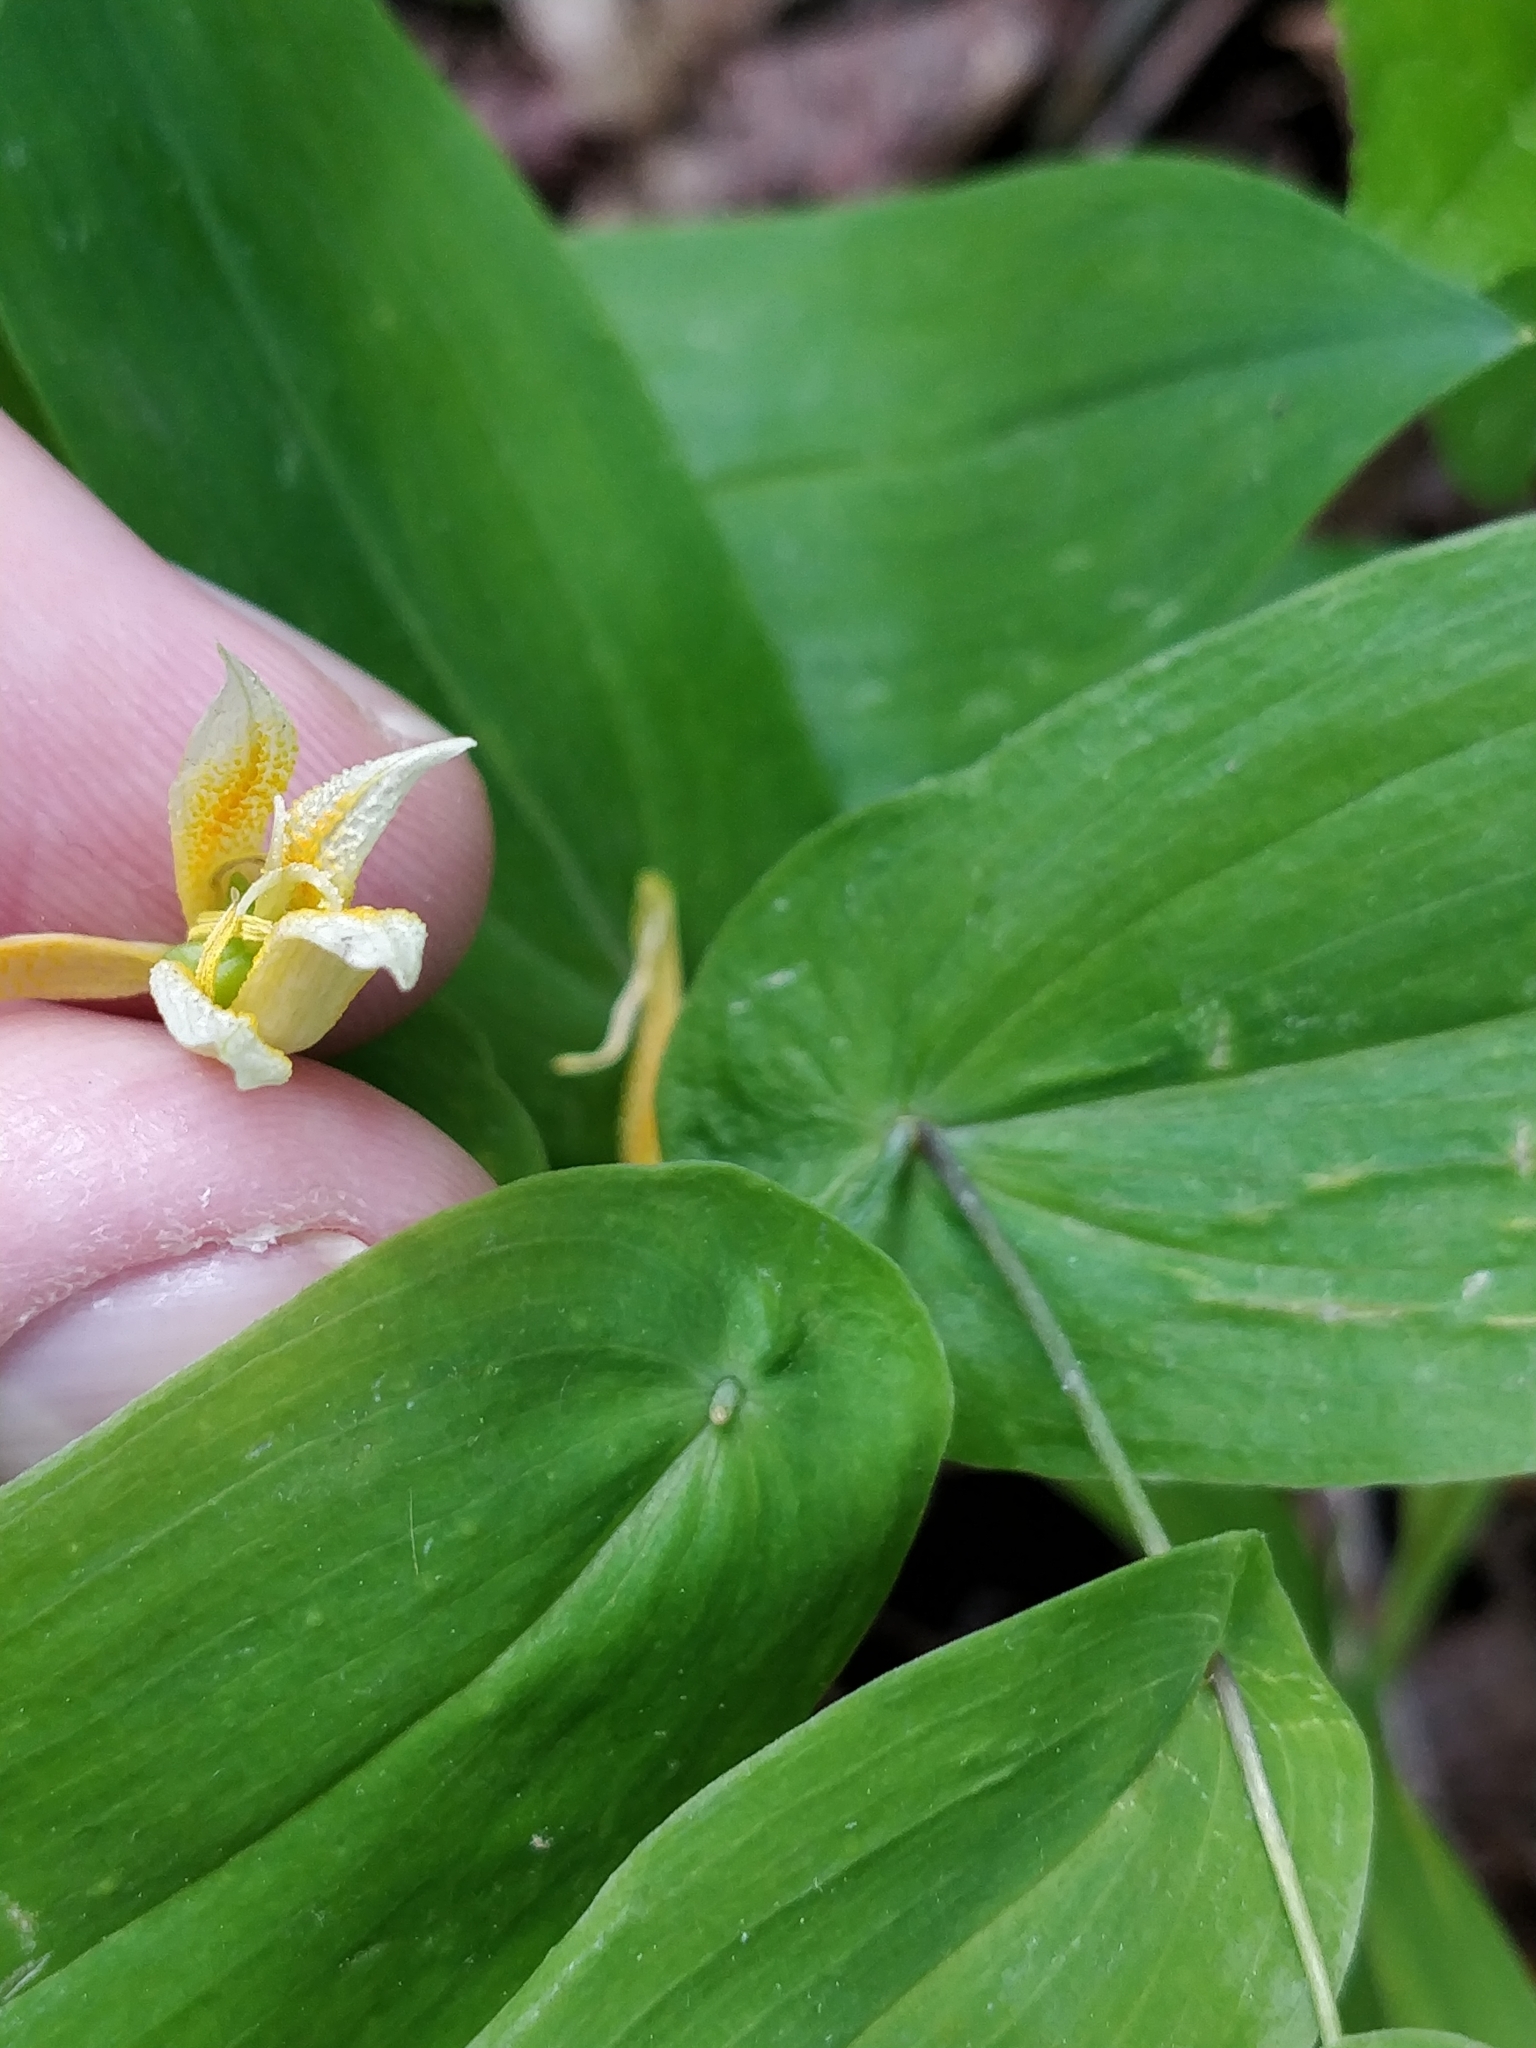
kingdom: Plantae
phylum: Tracheophyta
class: Liliopsida
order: Liliales
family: Colchicaceae
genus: Uvularia
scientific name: Uvularia perfoliata
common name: Perfoliate bellwort
